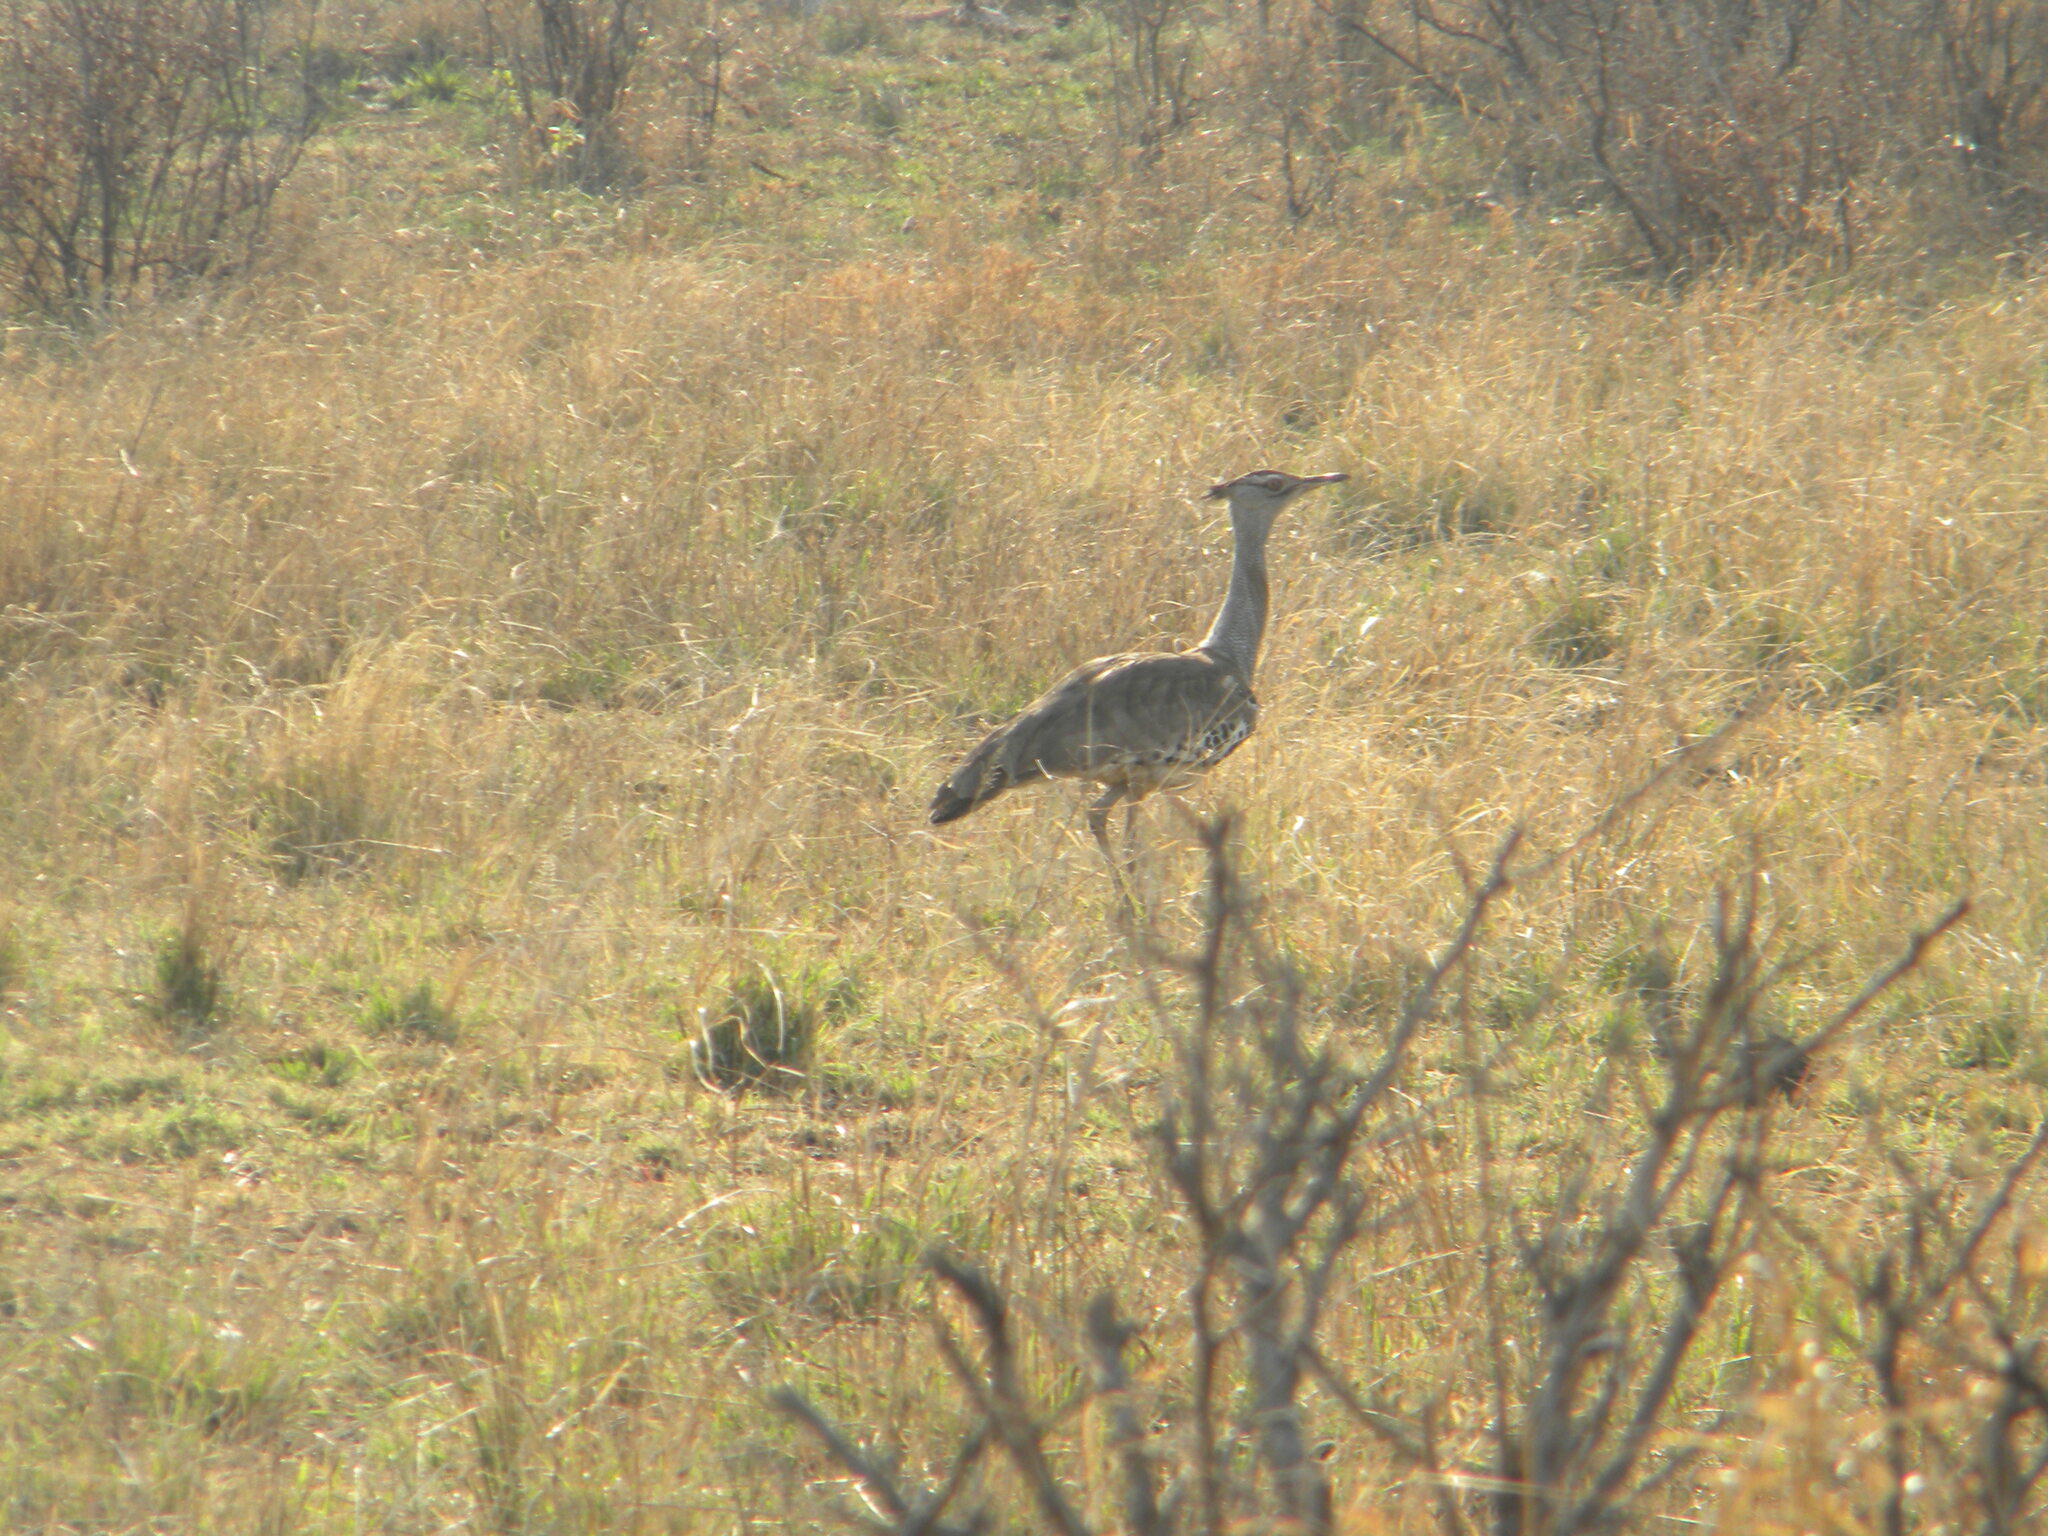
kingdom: Animalia
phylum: Chordata
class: Aves
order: Otidiformes
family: Otididae
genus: Ardeotis
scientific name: Ardeotis kori
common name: Kori bustard
